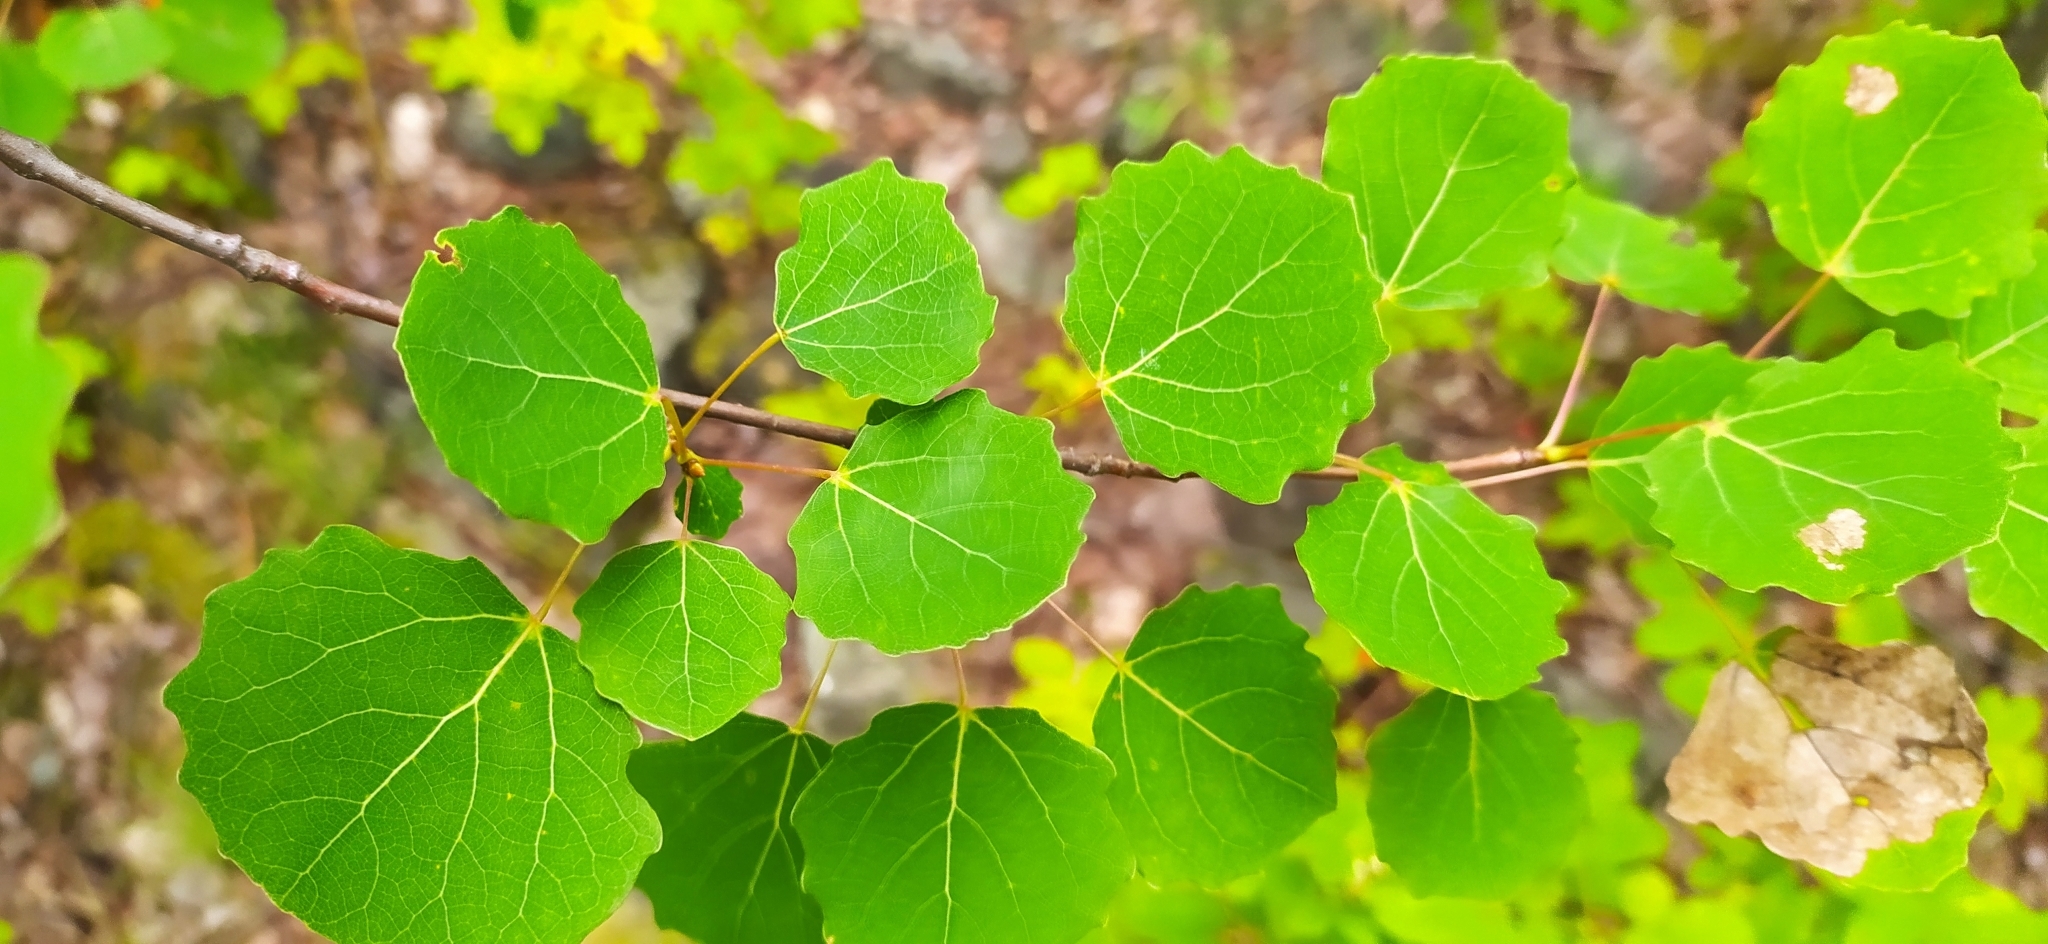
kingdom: Plantae
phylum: Tracheophyta
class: Magnoliopsida
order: Malpighiales
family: Salicaceae
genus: Populus
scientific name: Populus tremula
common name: European aspen
